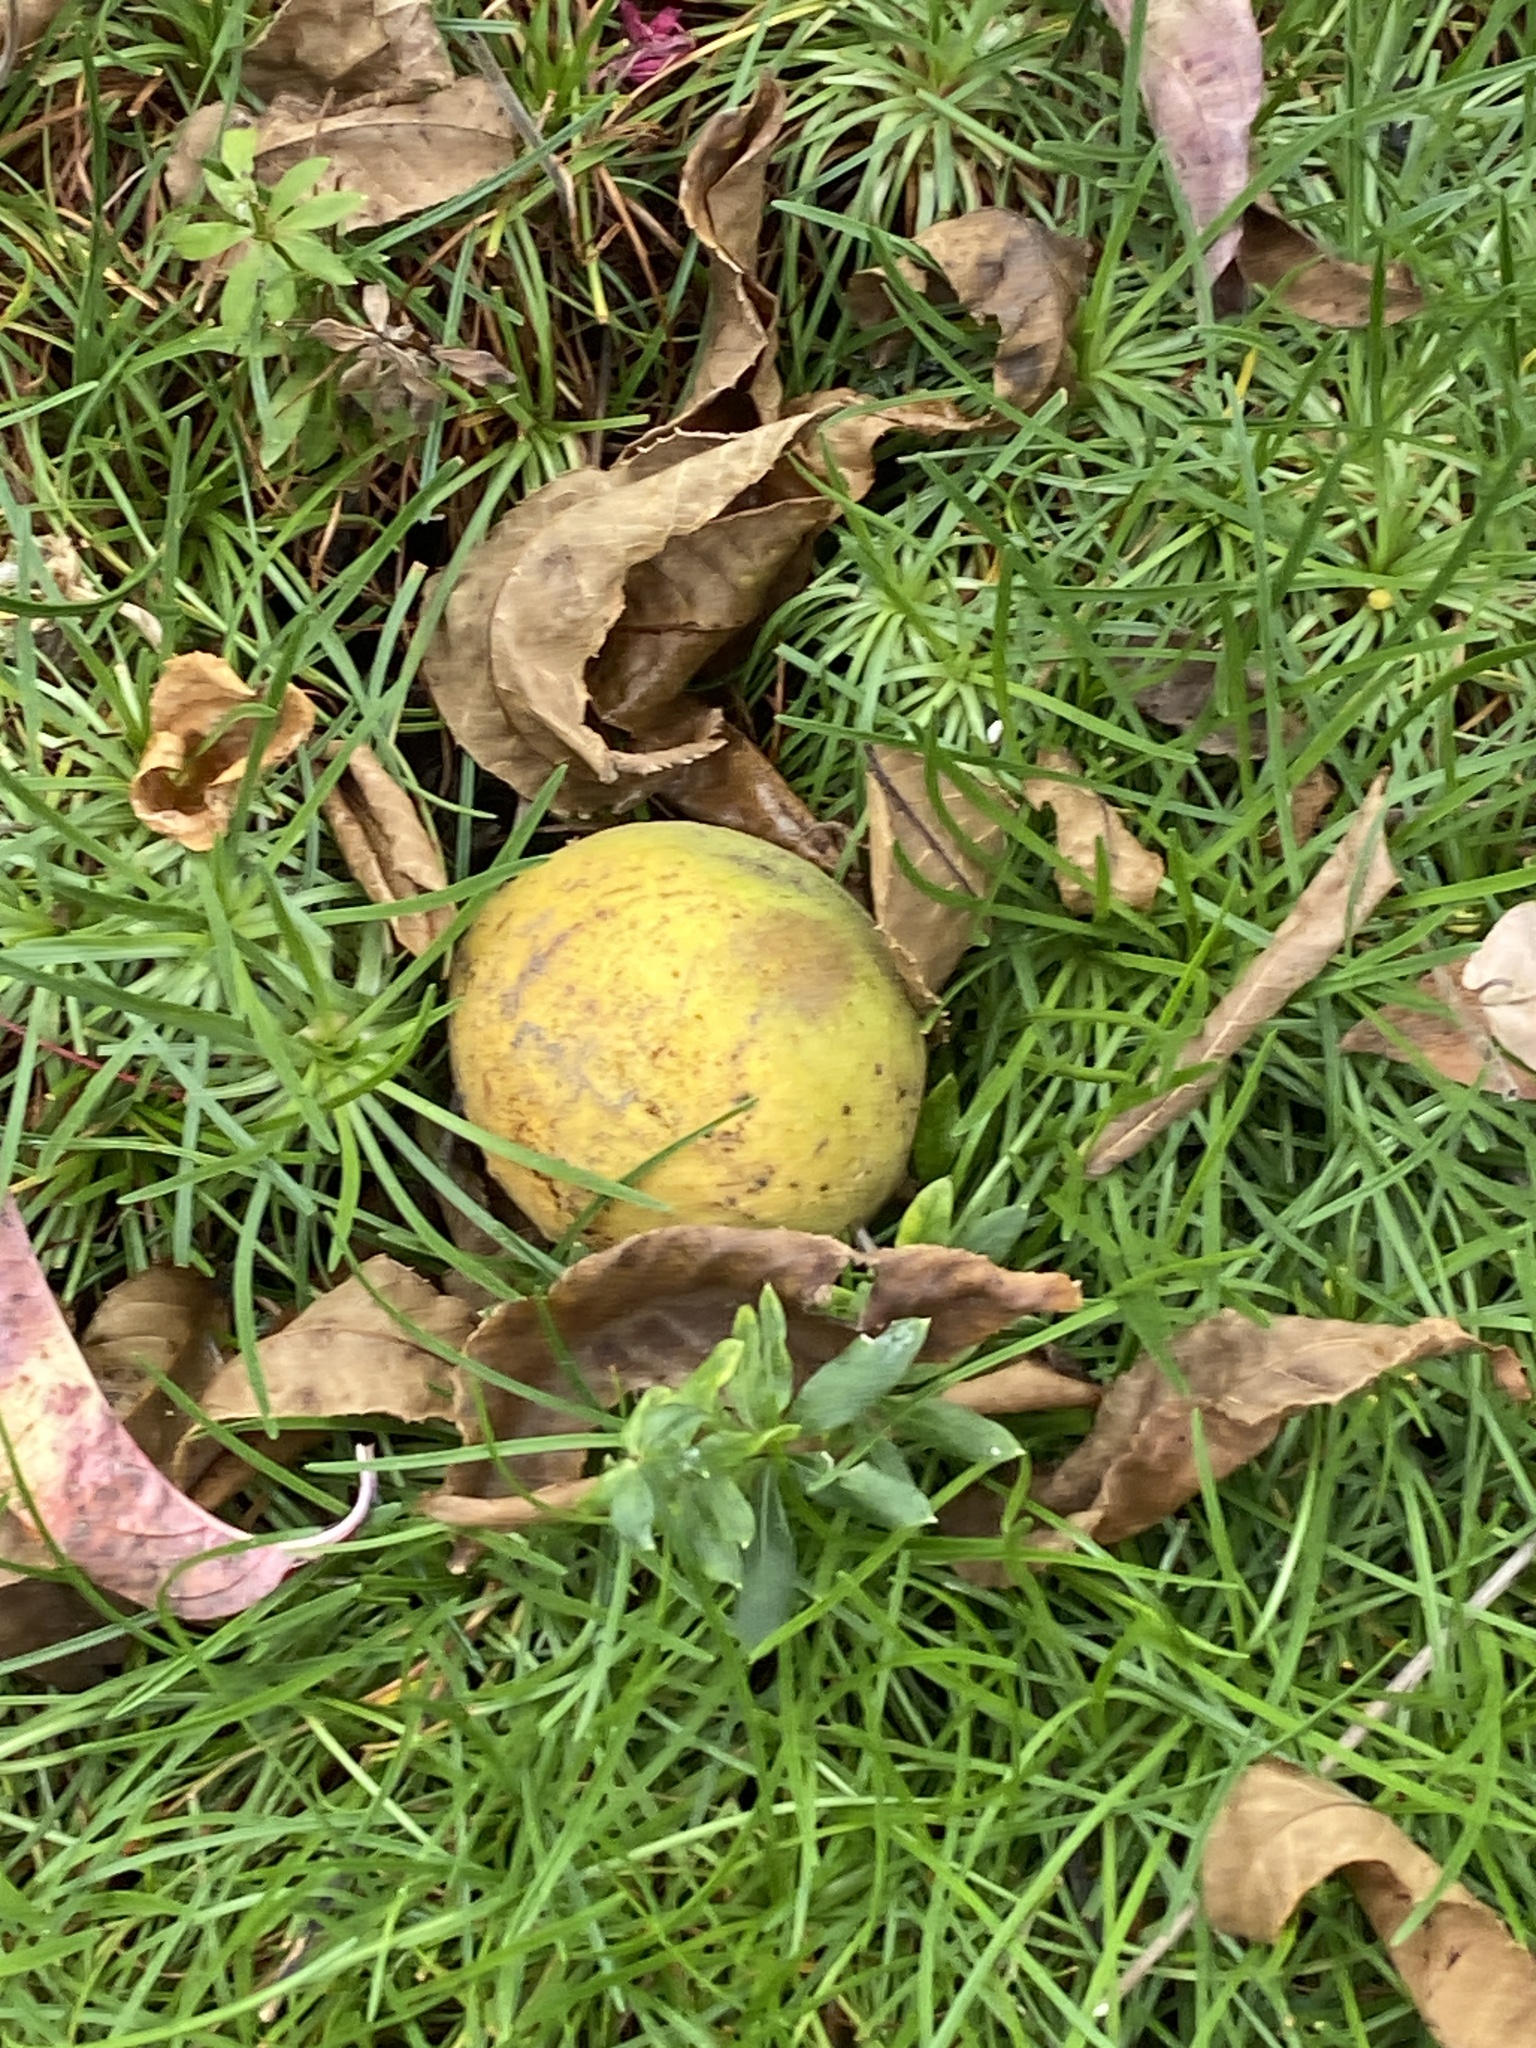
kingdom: Plantae
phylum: Tracheophyta
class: Magnoliopsida
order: Fagales
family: Juglandaceae
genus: Juglans
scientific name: Juglans nigra
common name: Black walnut
